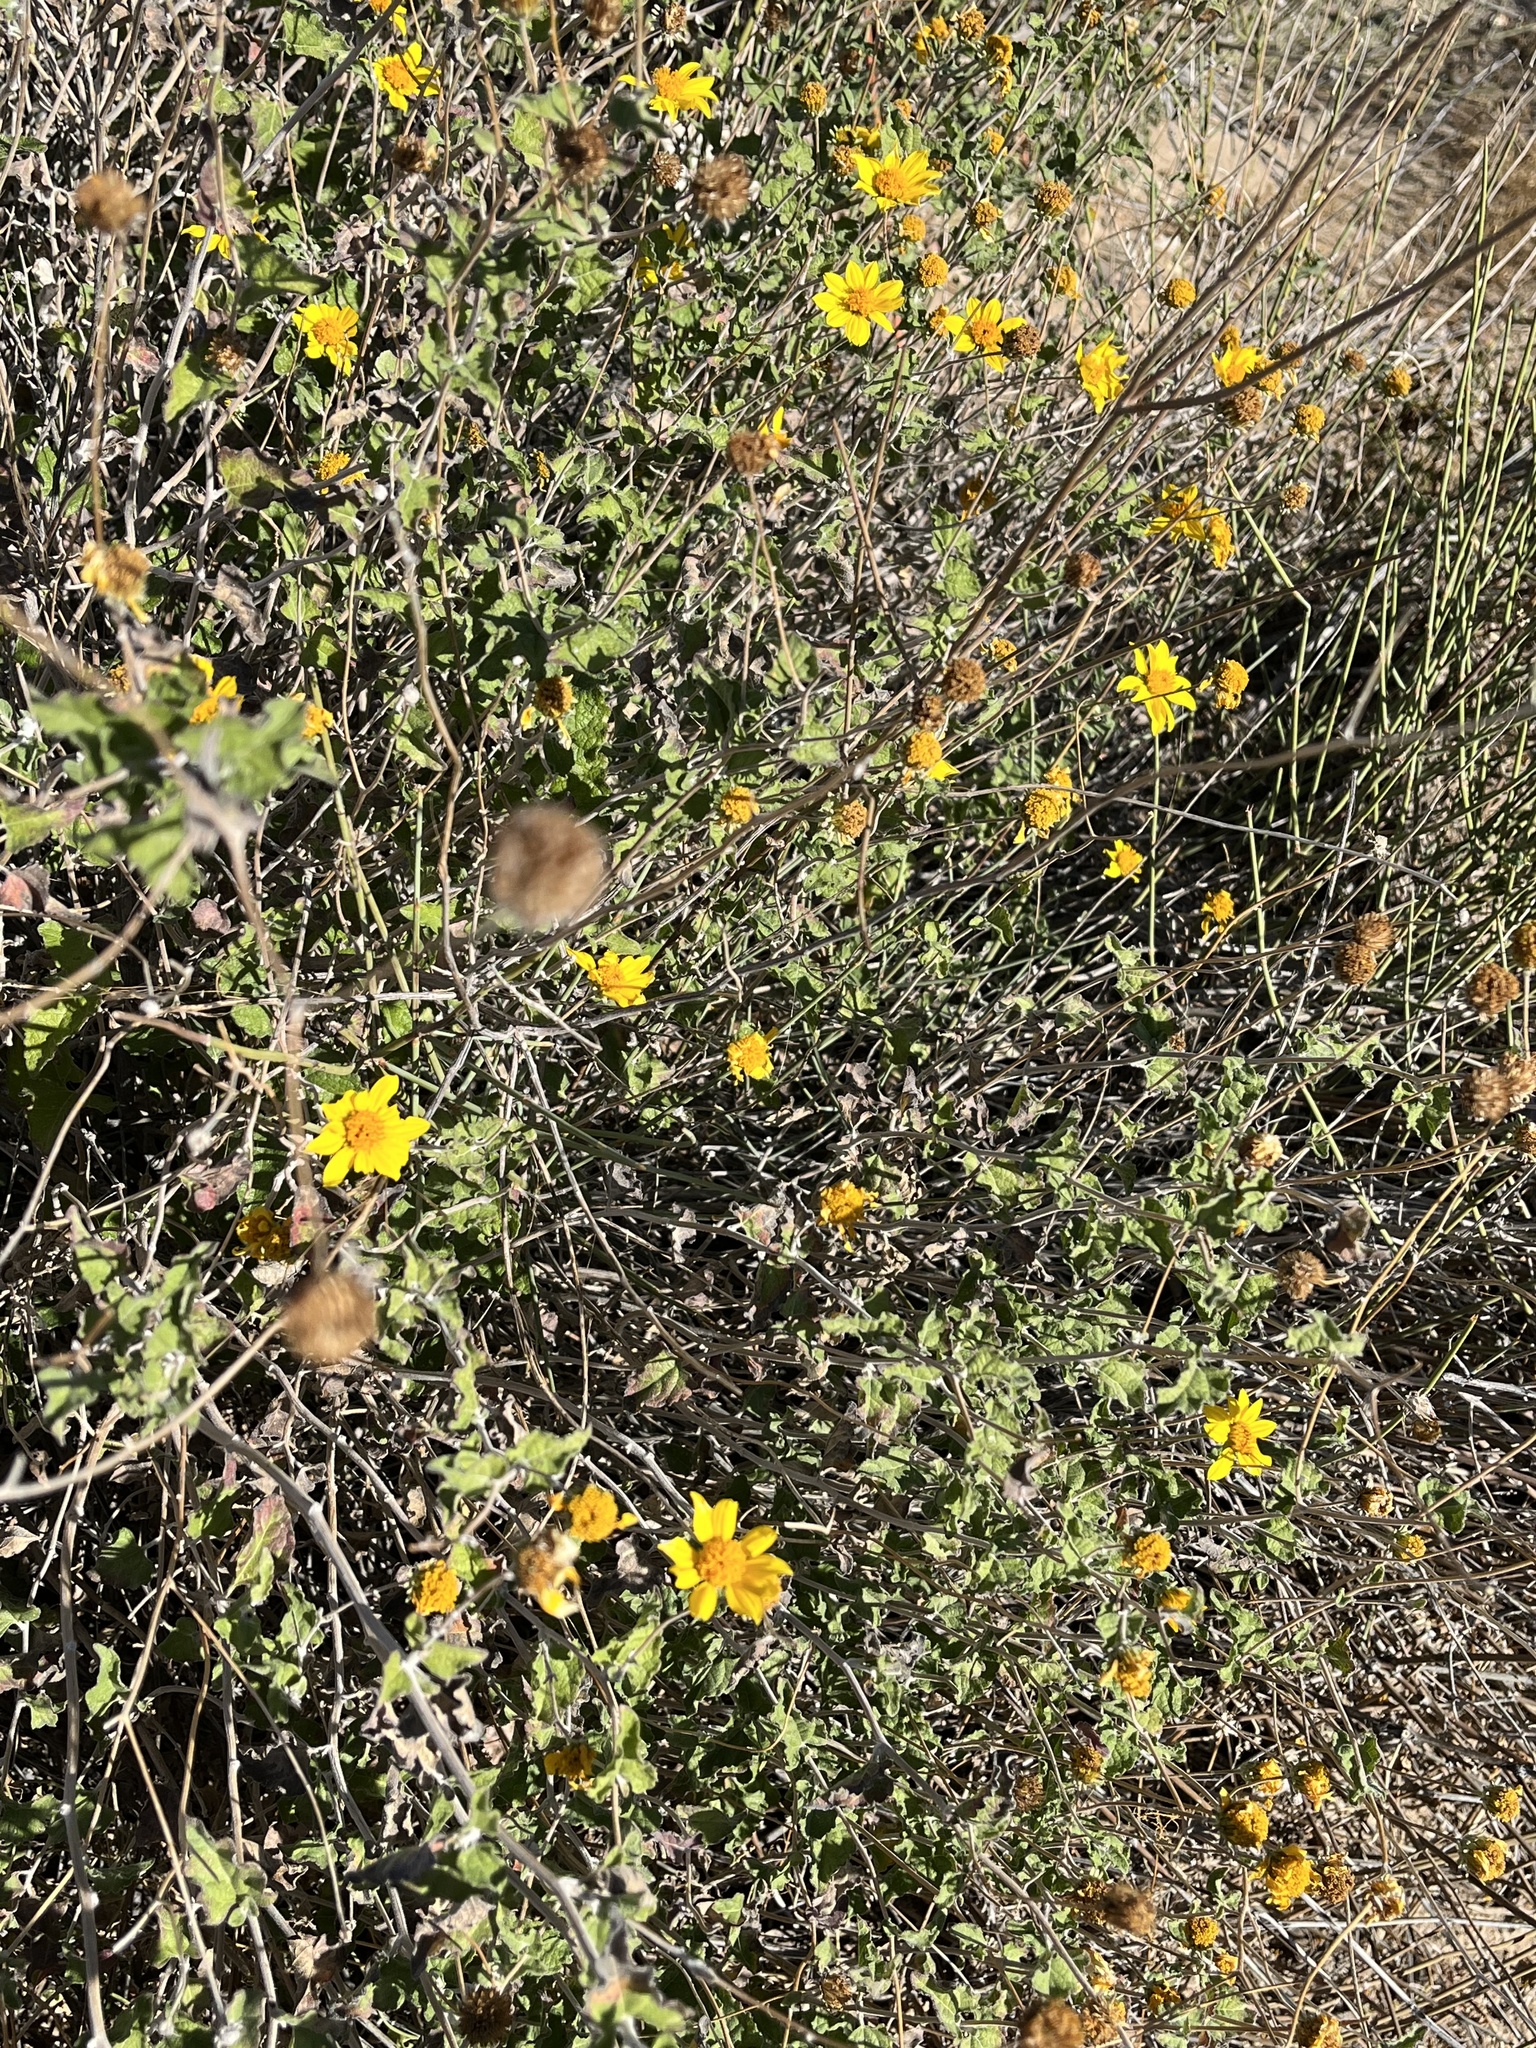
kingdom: Plantae
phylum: Tracheophyta
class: Magnoliopsida
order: Asterales
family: Asteraceae
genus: Bahiopsis
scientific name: Bahiopsis parishii
